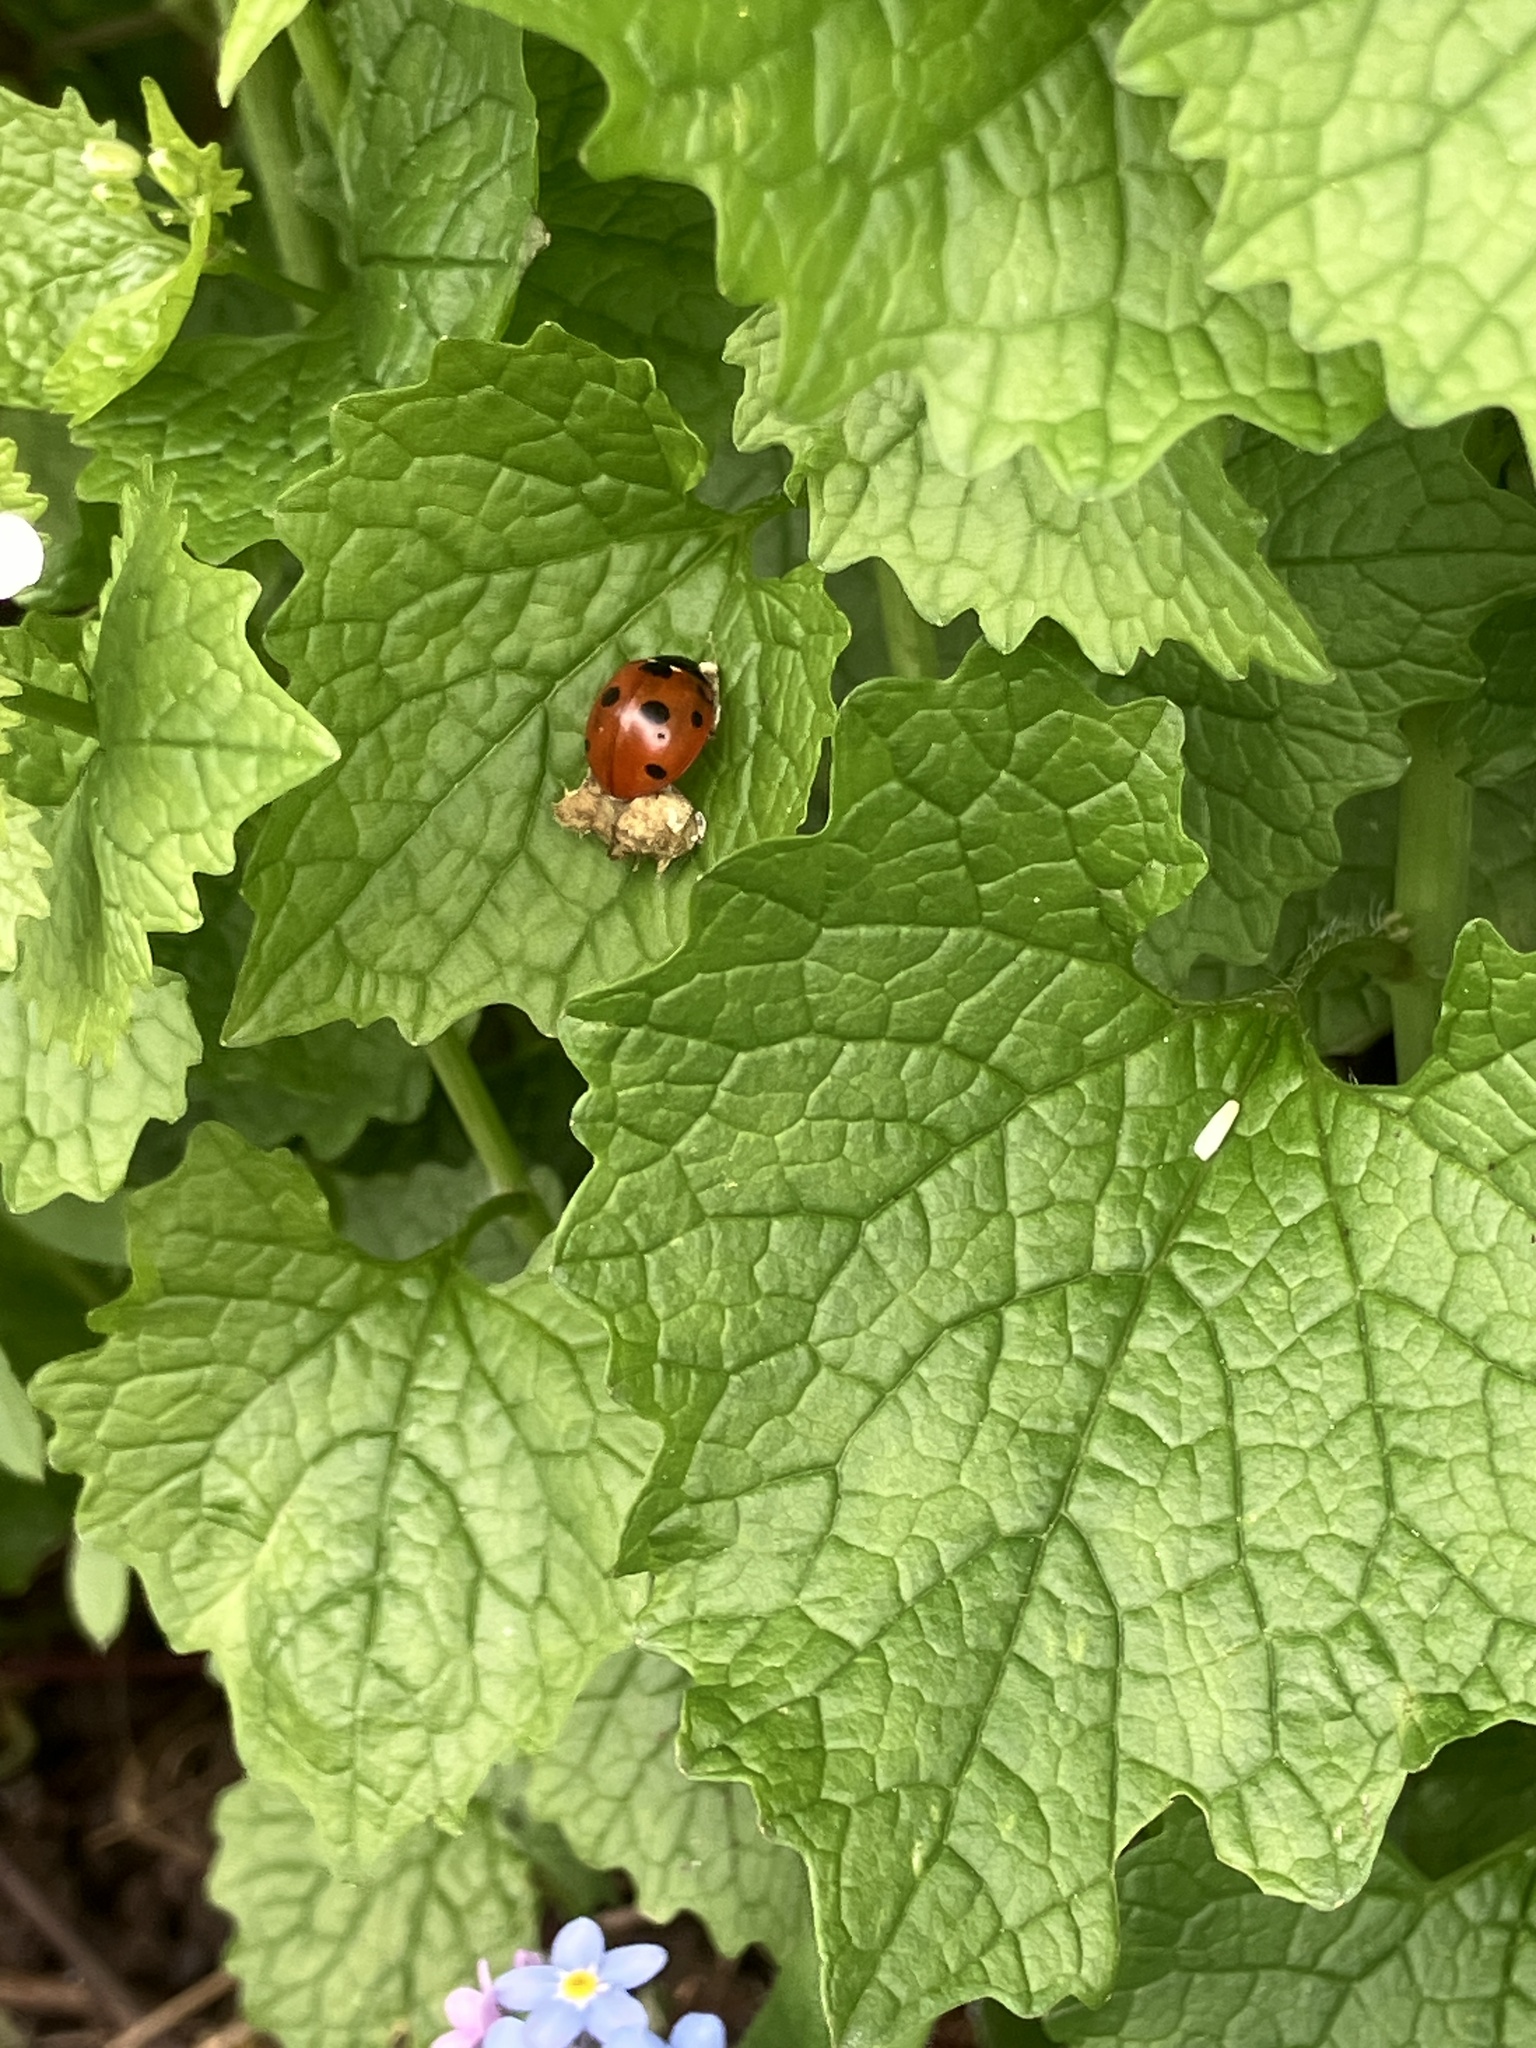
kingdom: Animalia
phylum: Arthropoda
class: Insecta
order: Coleoptera
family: Coccinellidae
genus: Coccinella
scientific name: Coccinella septempunctata
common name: Sevenspotted lady beetle
